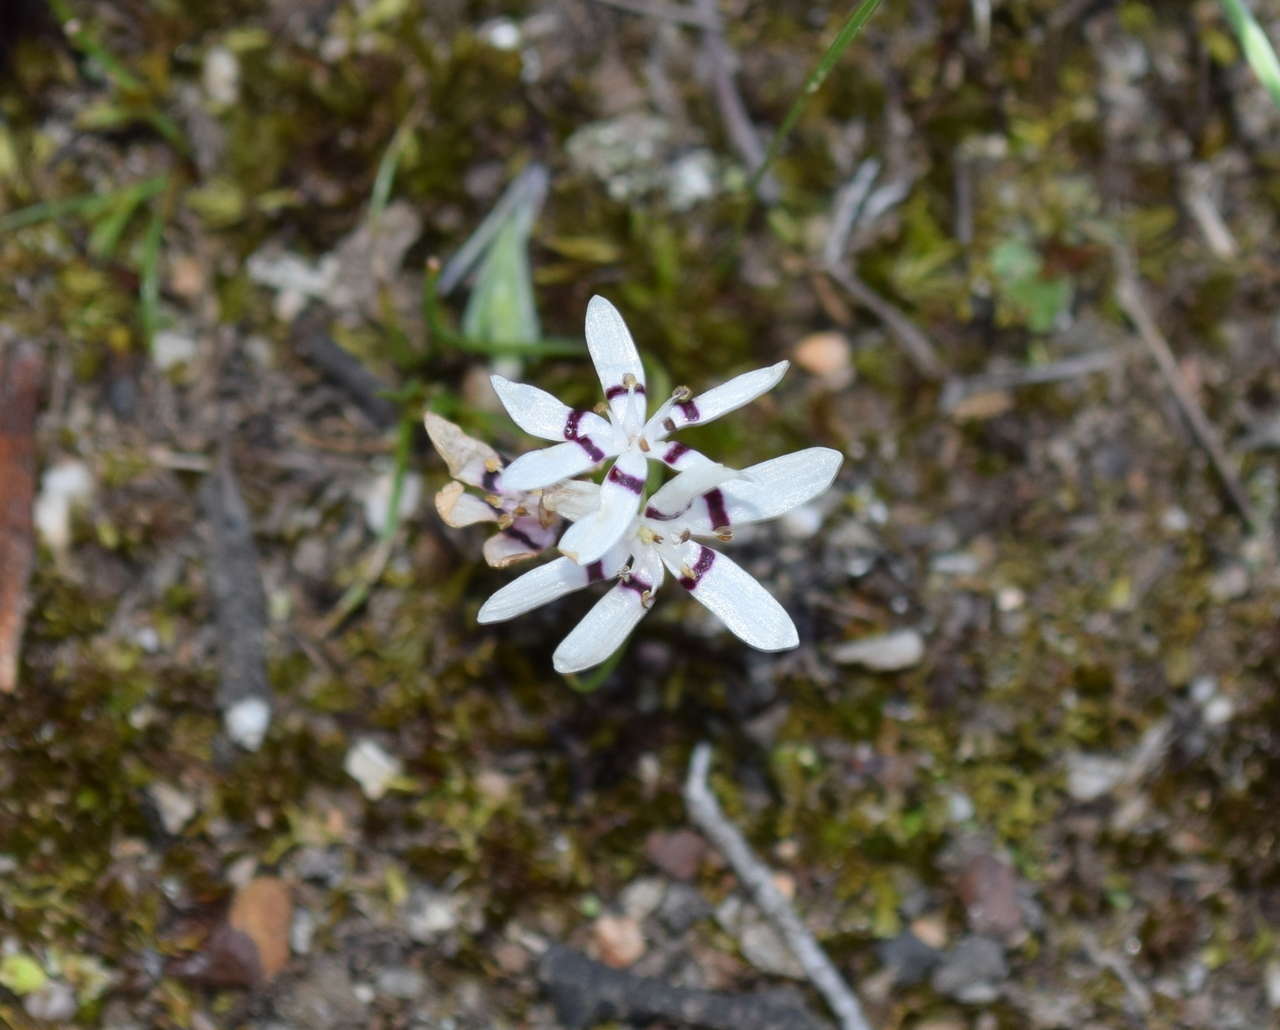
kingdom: Plantae
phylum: Tracheophyta
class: Liliopsida
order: Liliales
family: Colchicaceae
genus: Wurmbea
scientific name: Wurmbea dioica
